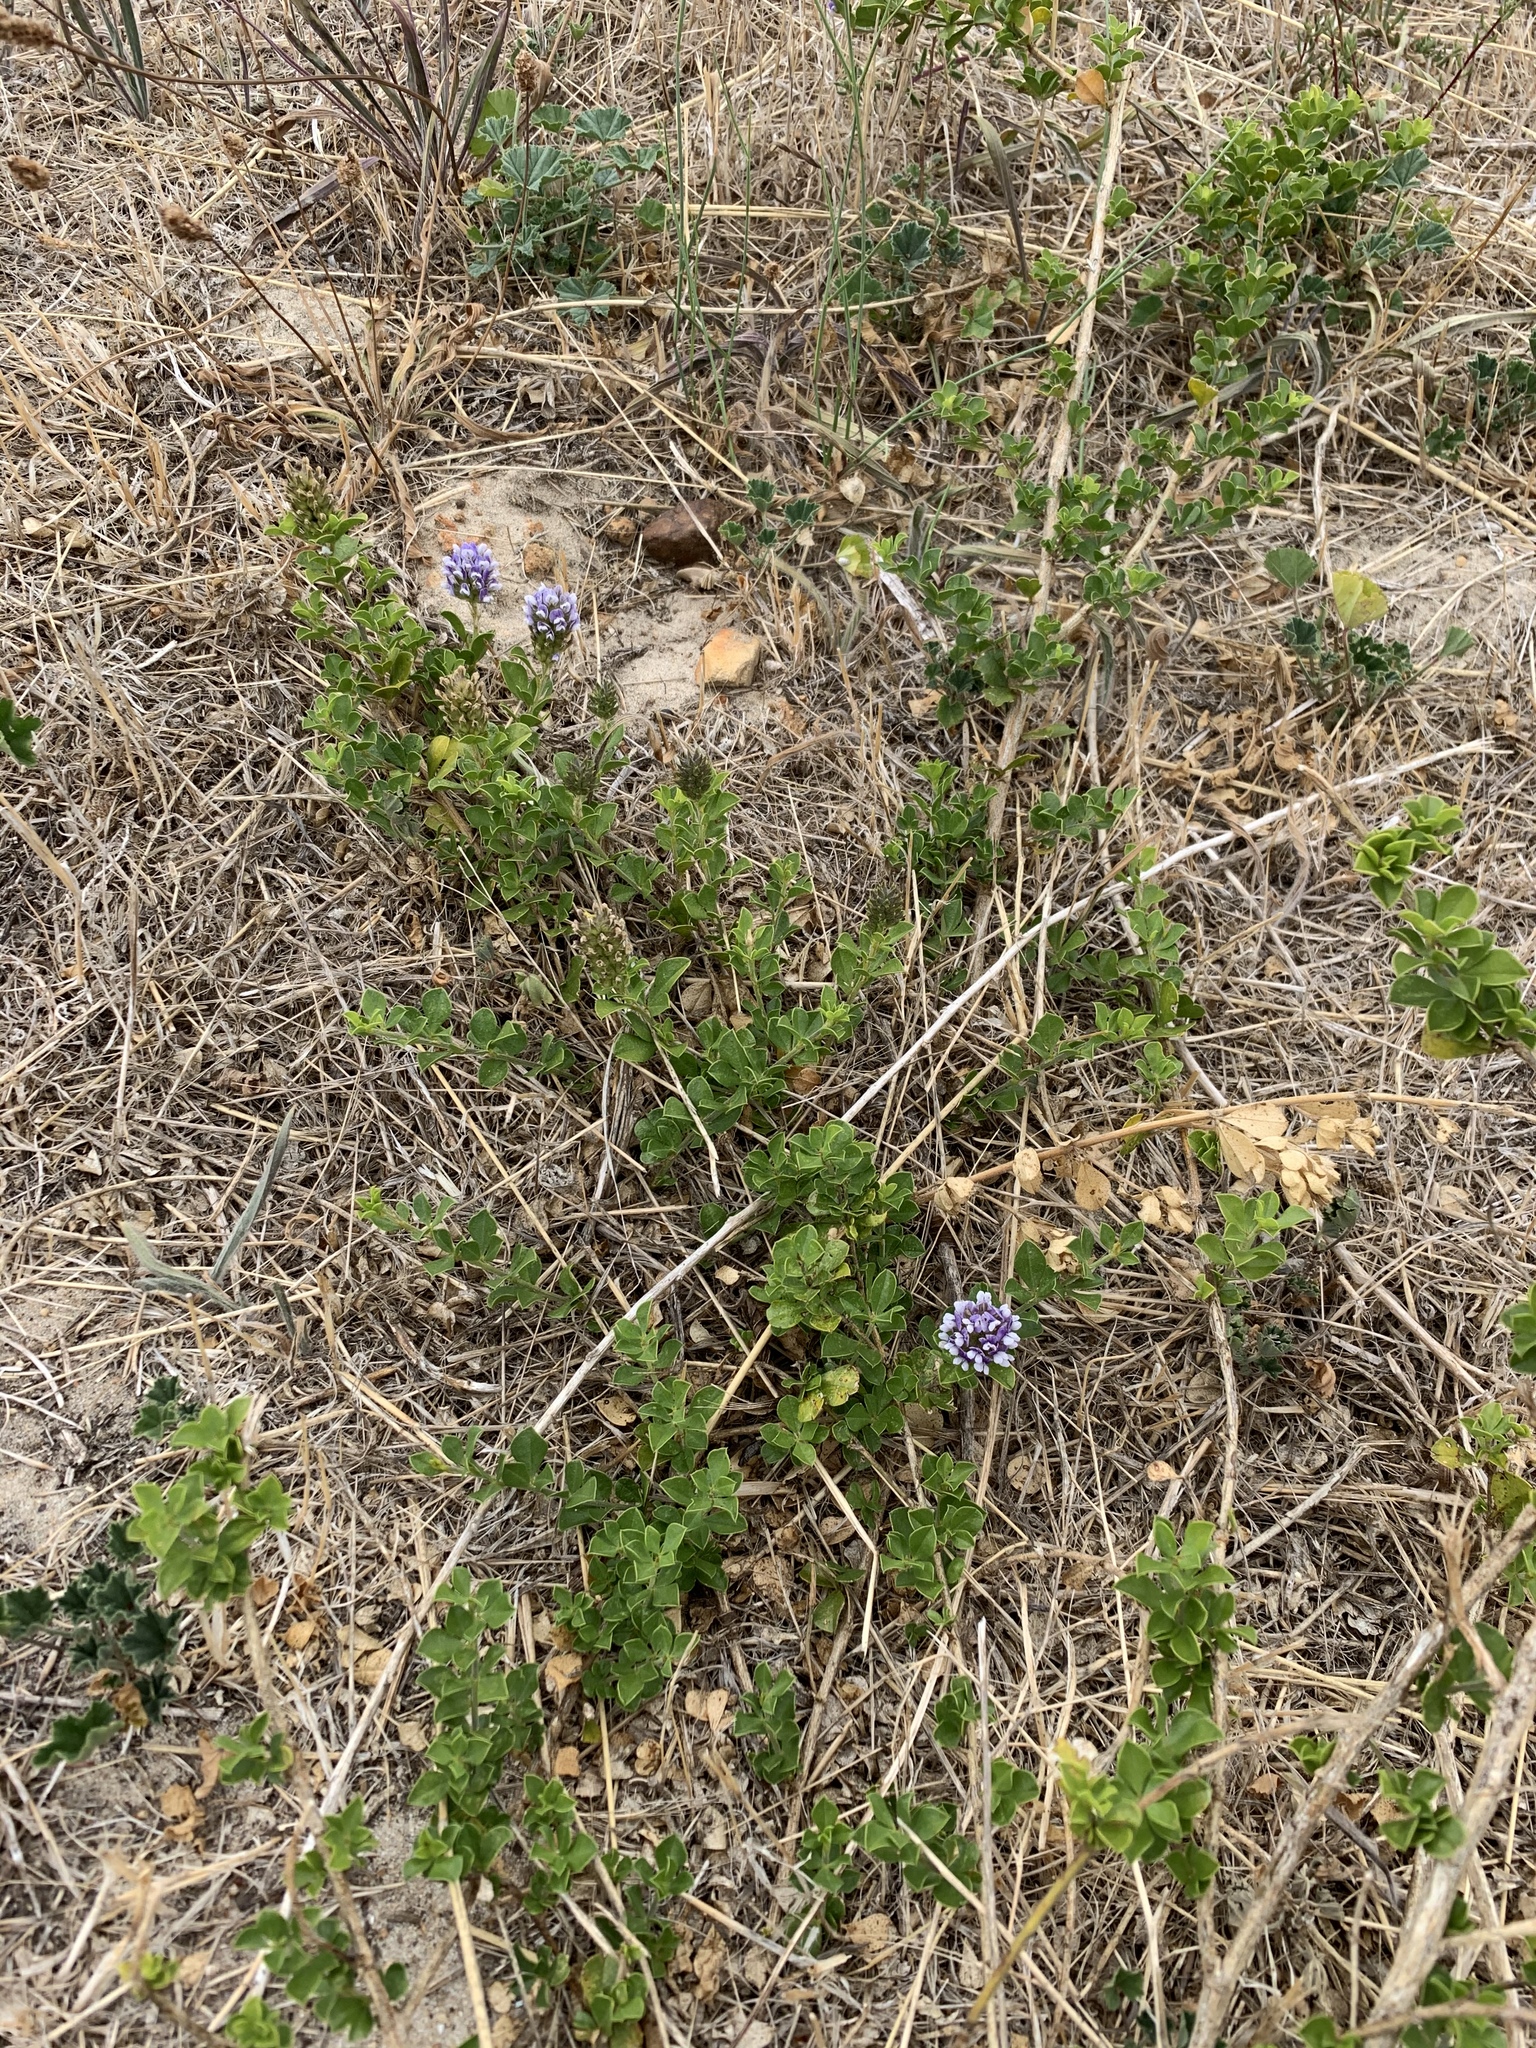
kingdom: Plantae
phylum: Tracheophyta
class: Magnoliopsida
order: Fabales
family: Fabaceae
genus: Psoralea
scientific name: Psoralea bracteolata
